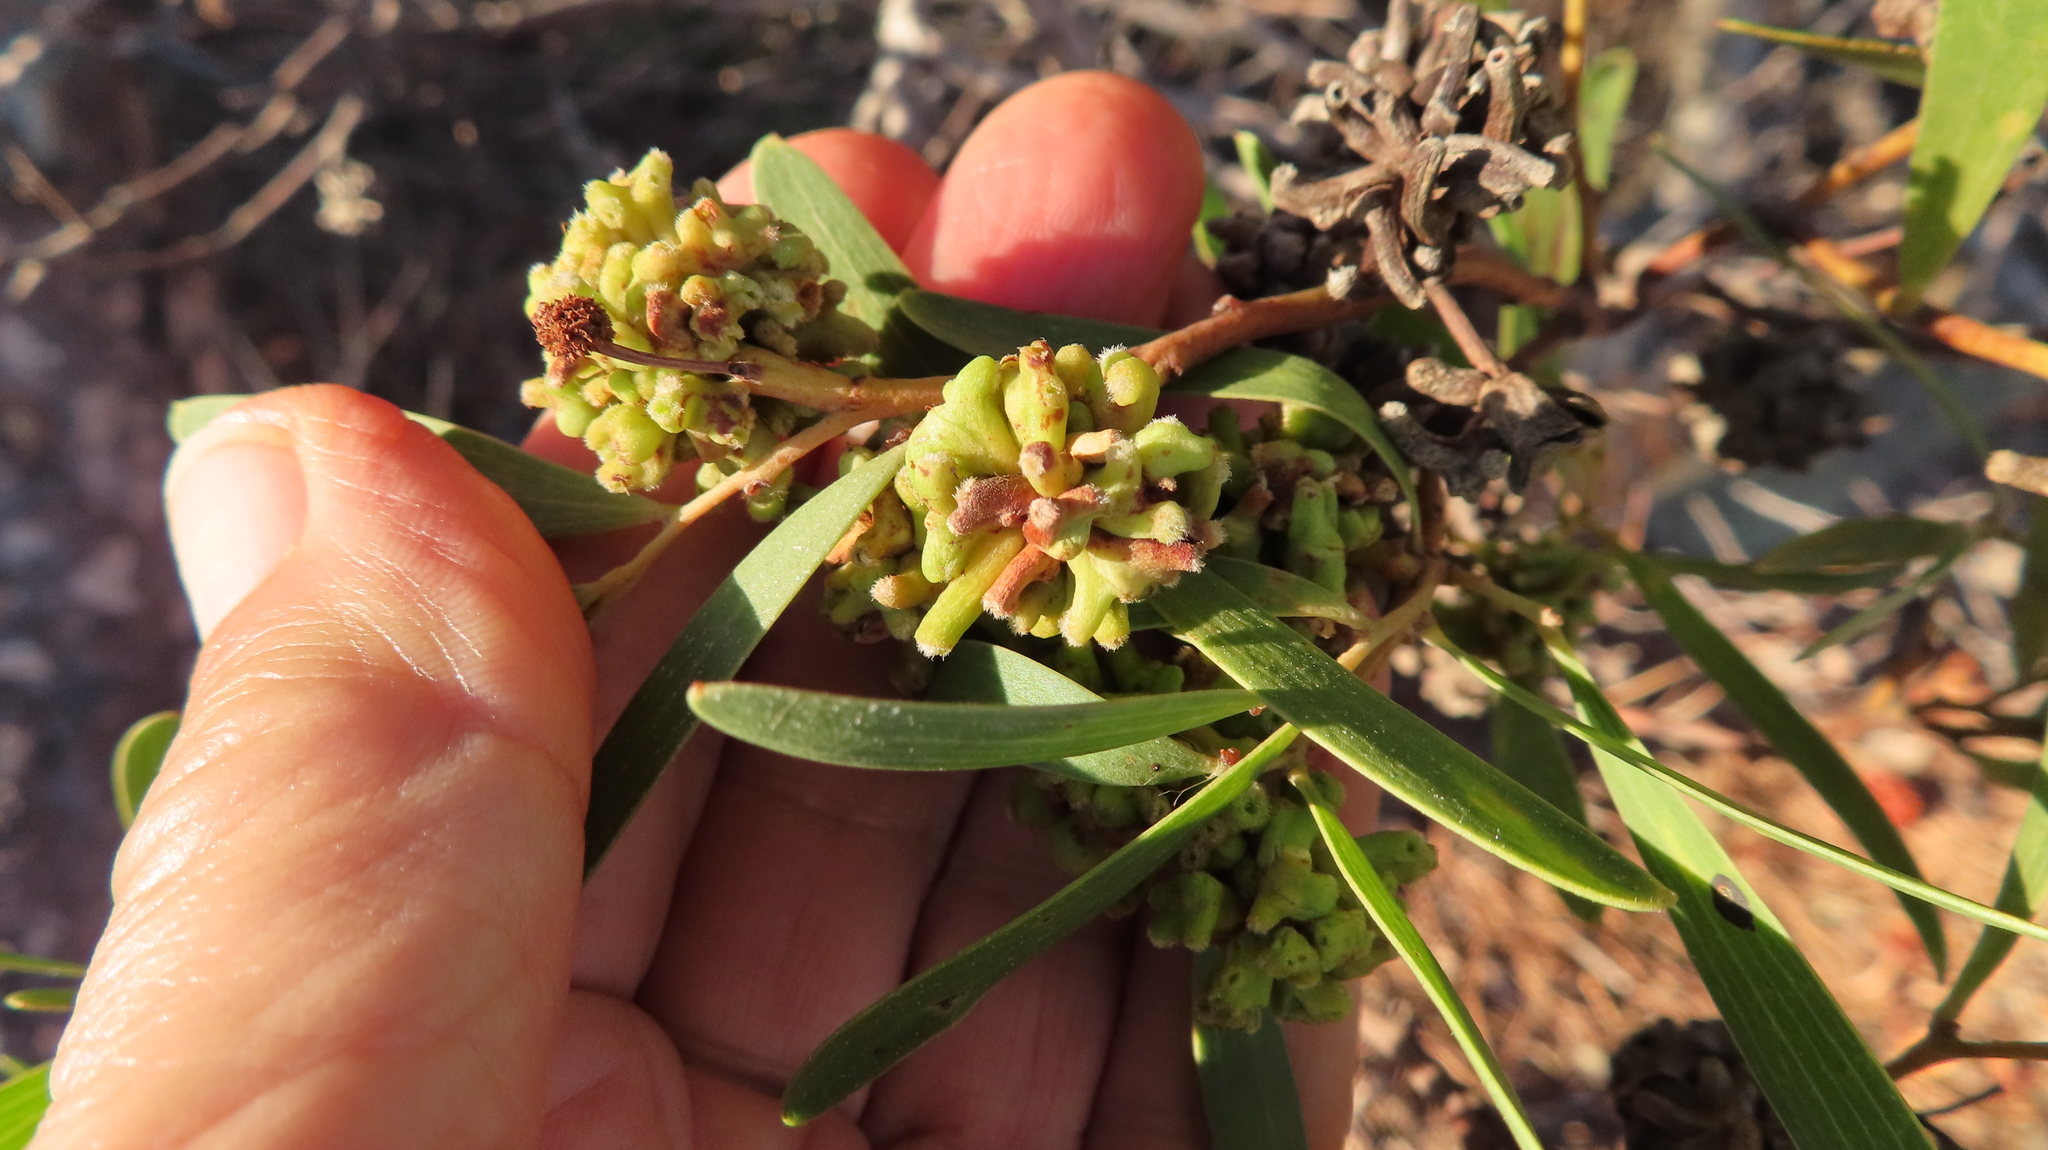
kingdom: Plantae
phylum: Tracheophyta
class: Magnoliopsida
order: Fabales
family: Fabaceae
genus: Acacia
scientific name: Acacia cyclops
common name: Coastal wattle
